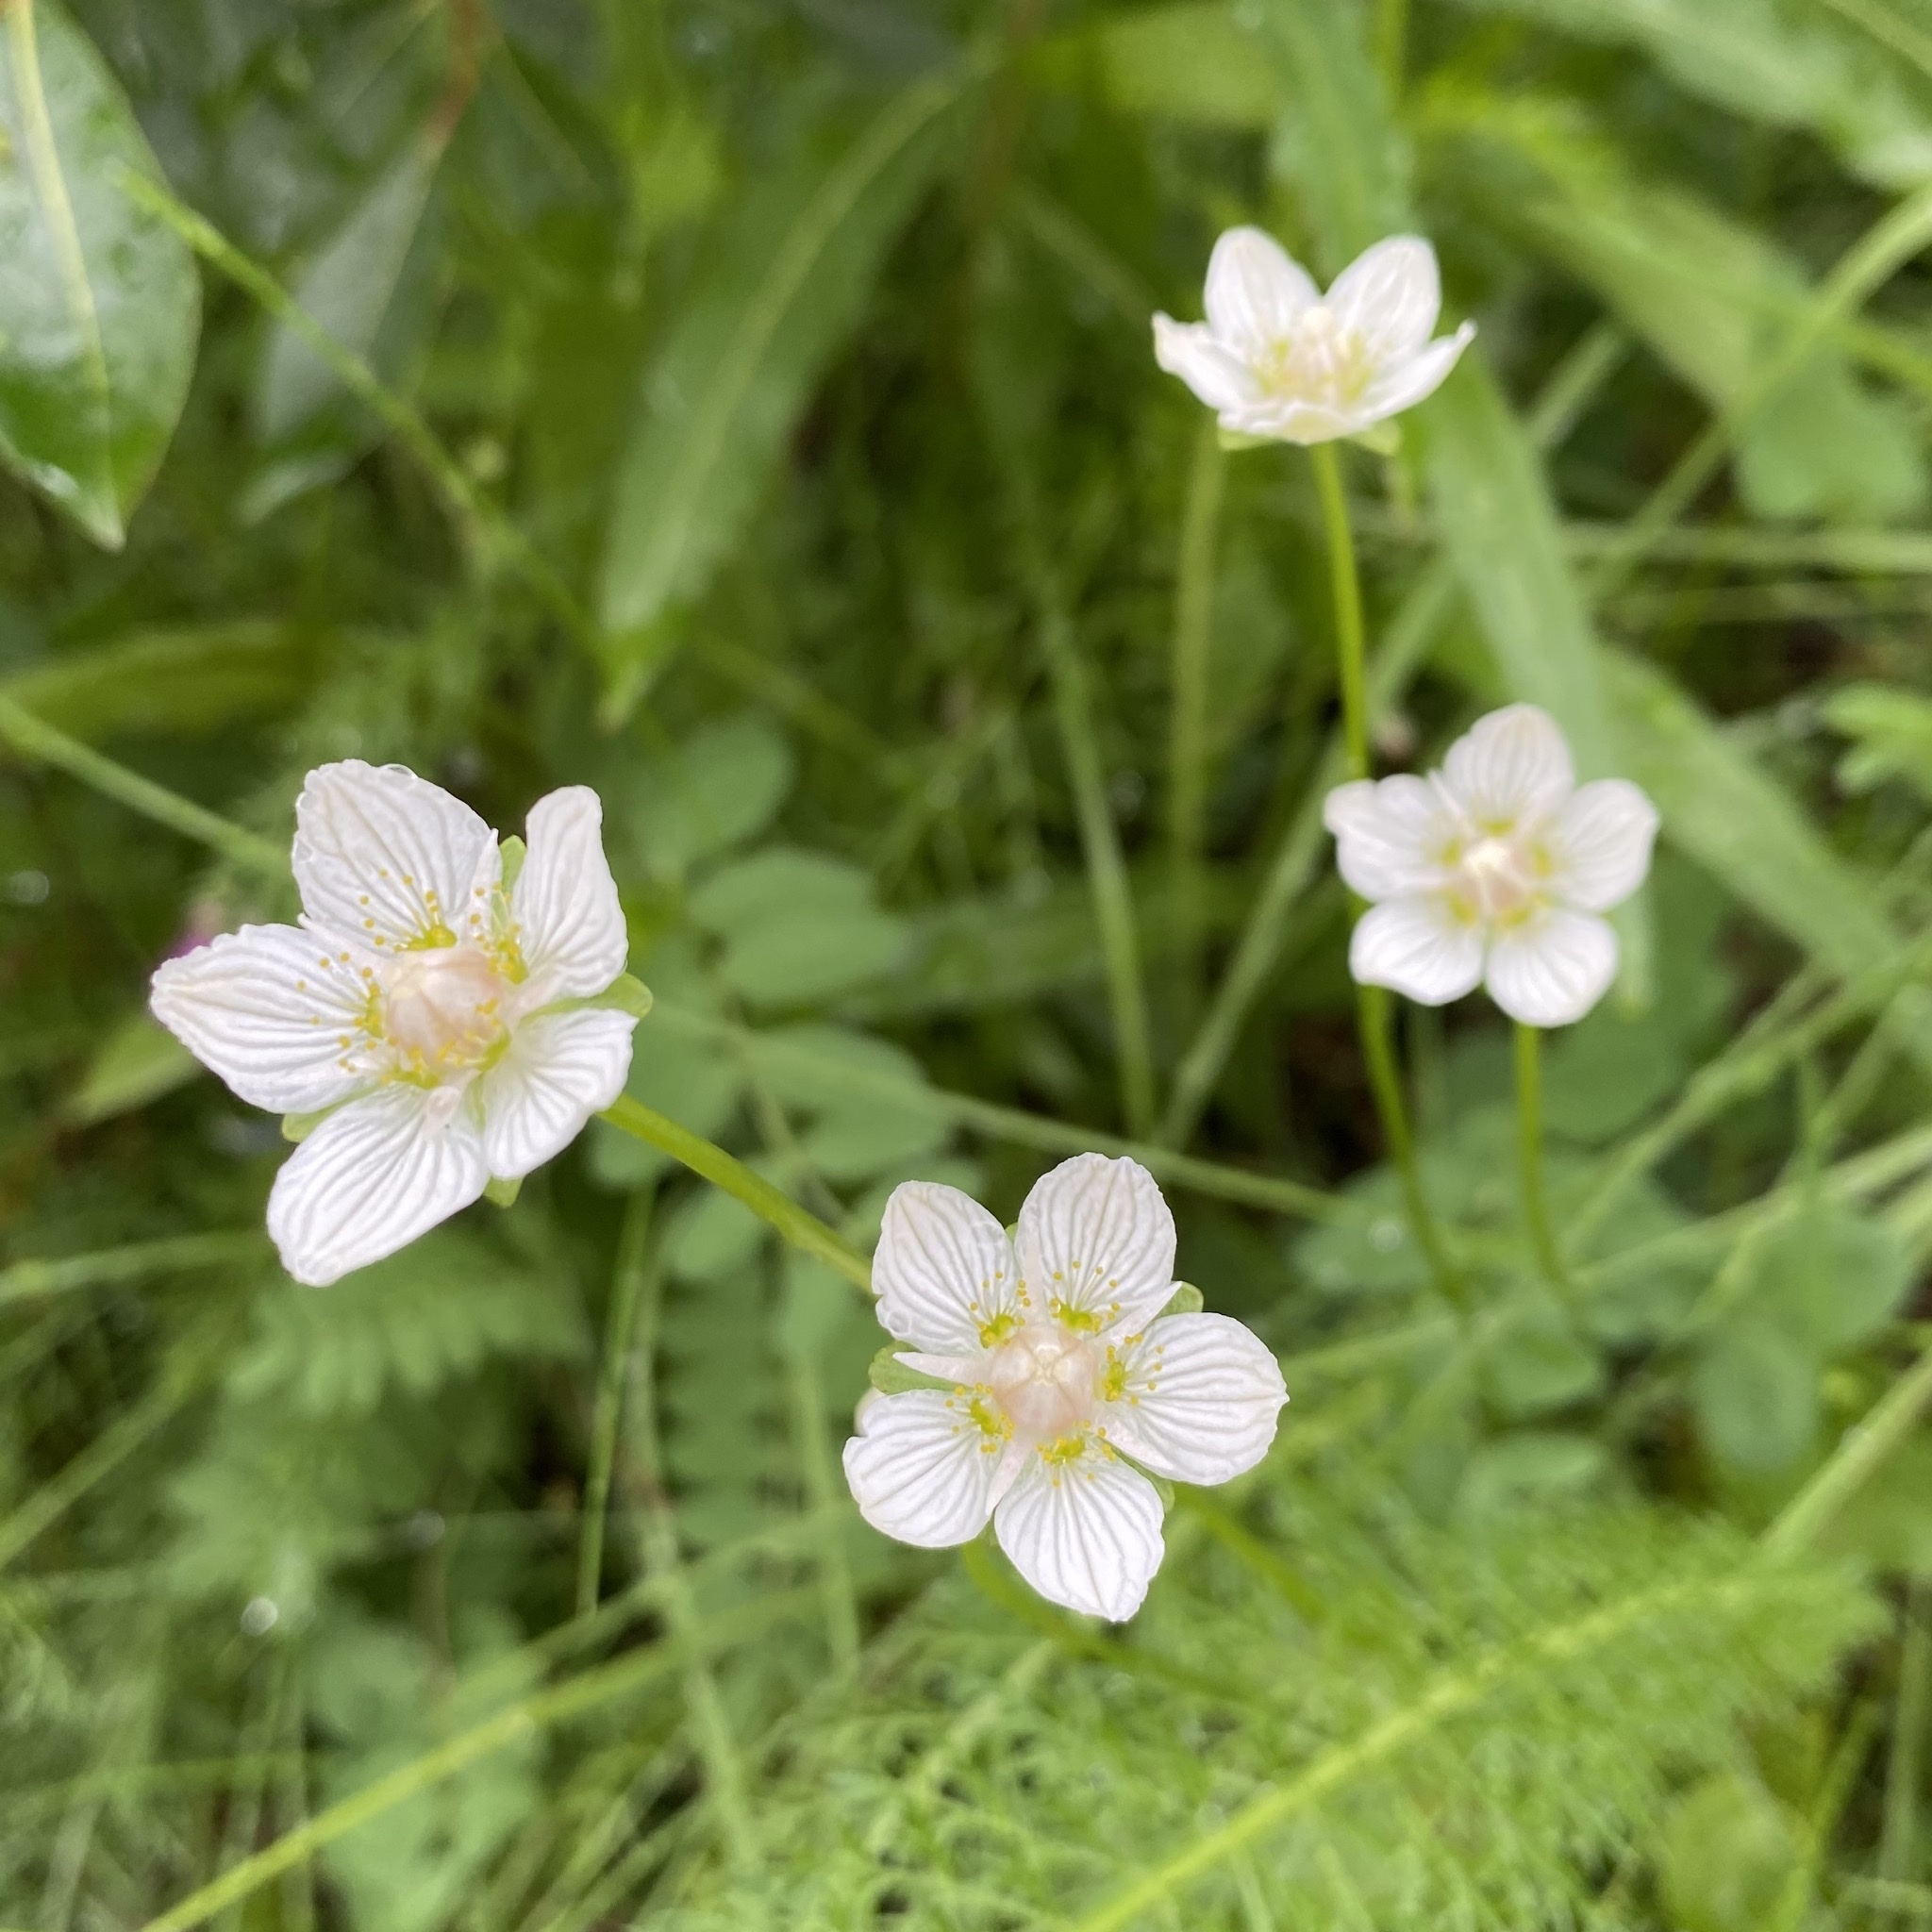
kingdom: Plantae
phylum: Tracheophyta
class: Magnoliopsida
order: Celastrales
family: Parnassiaceae
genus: Parnassia
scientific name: Parnassia palustris
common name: Grass-of-parnassus
